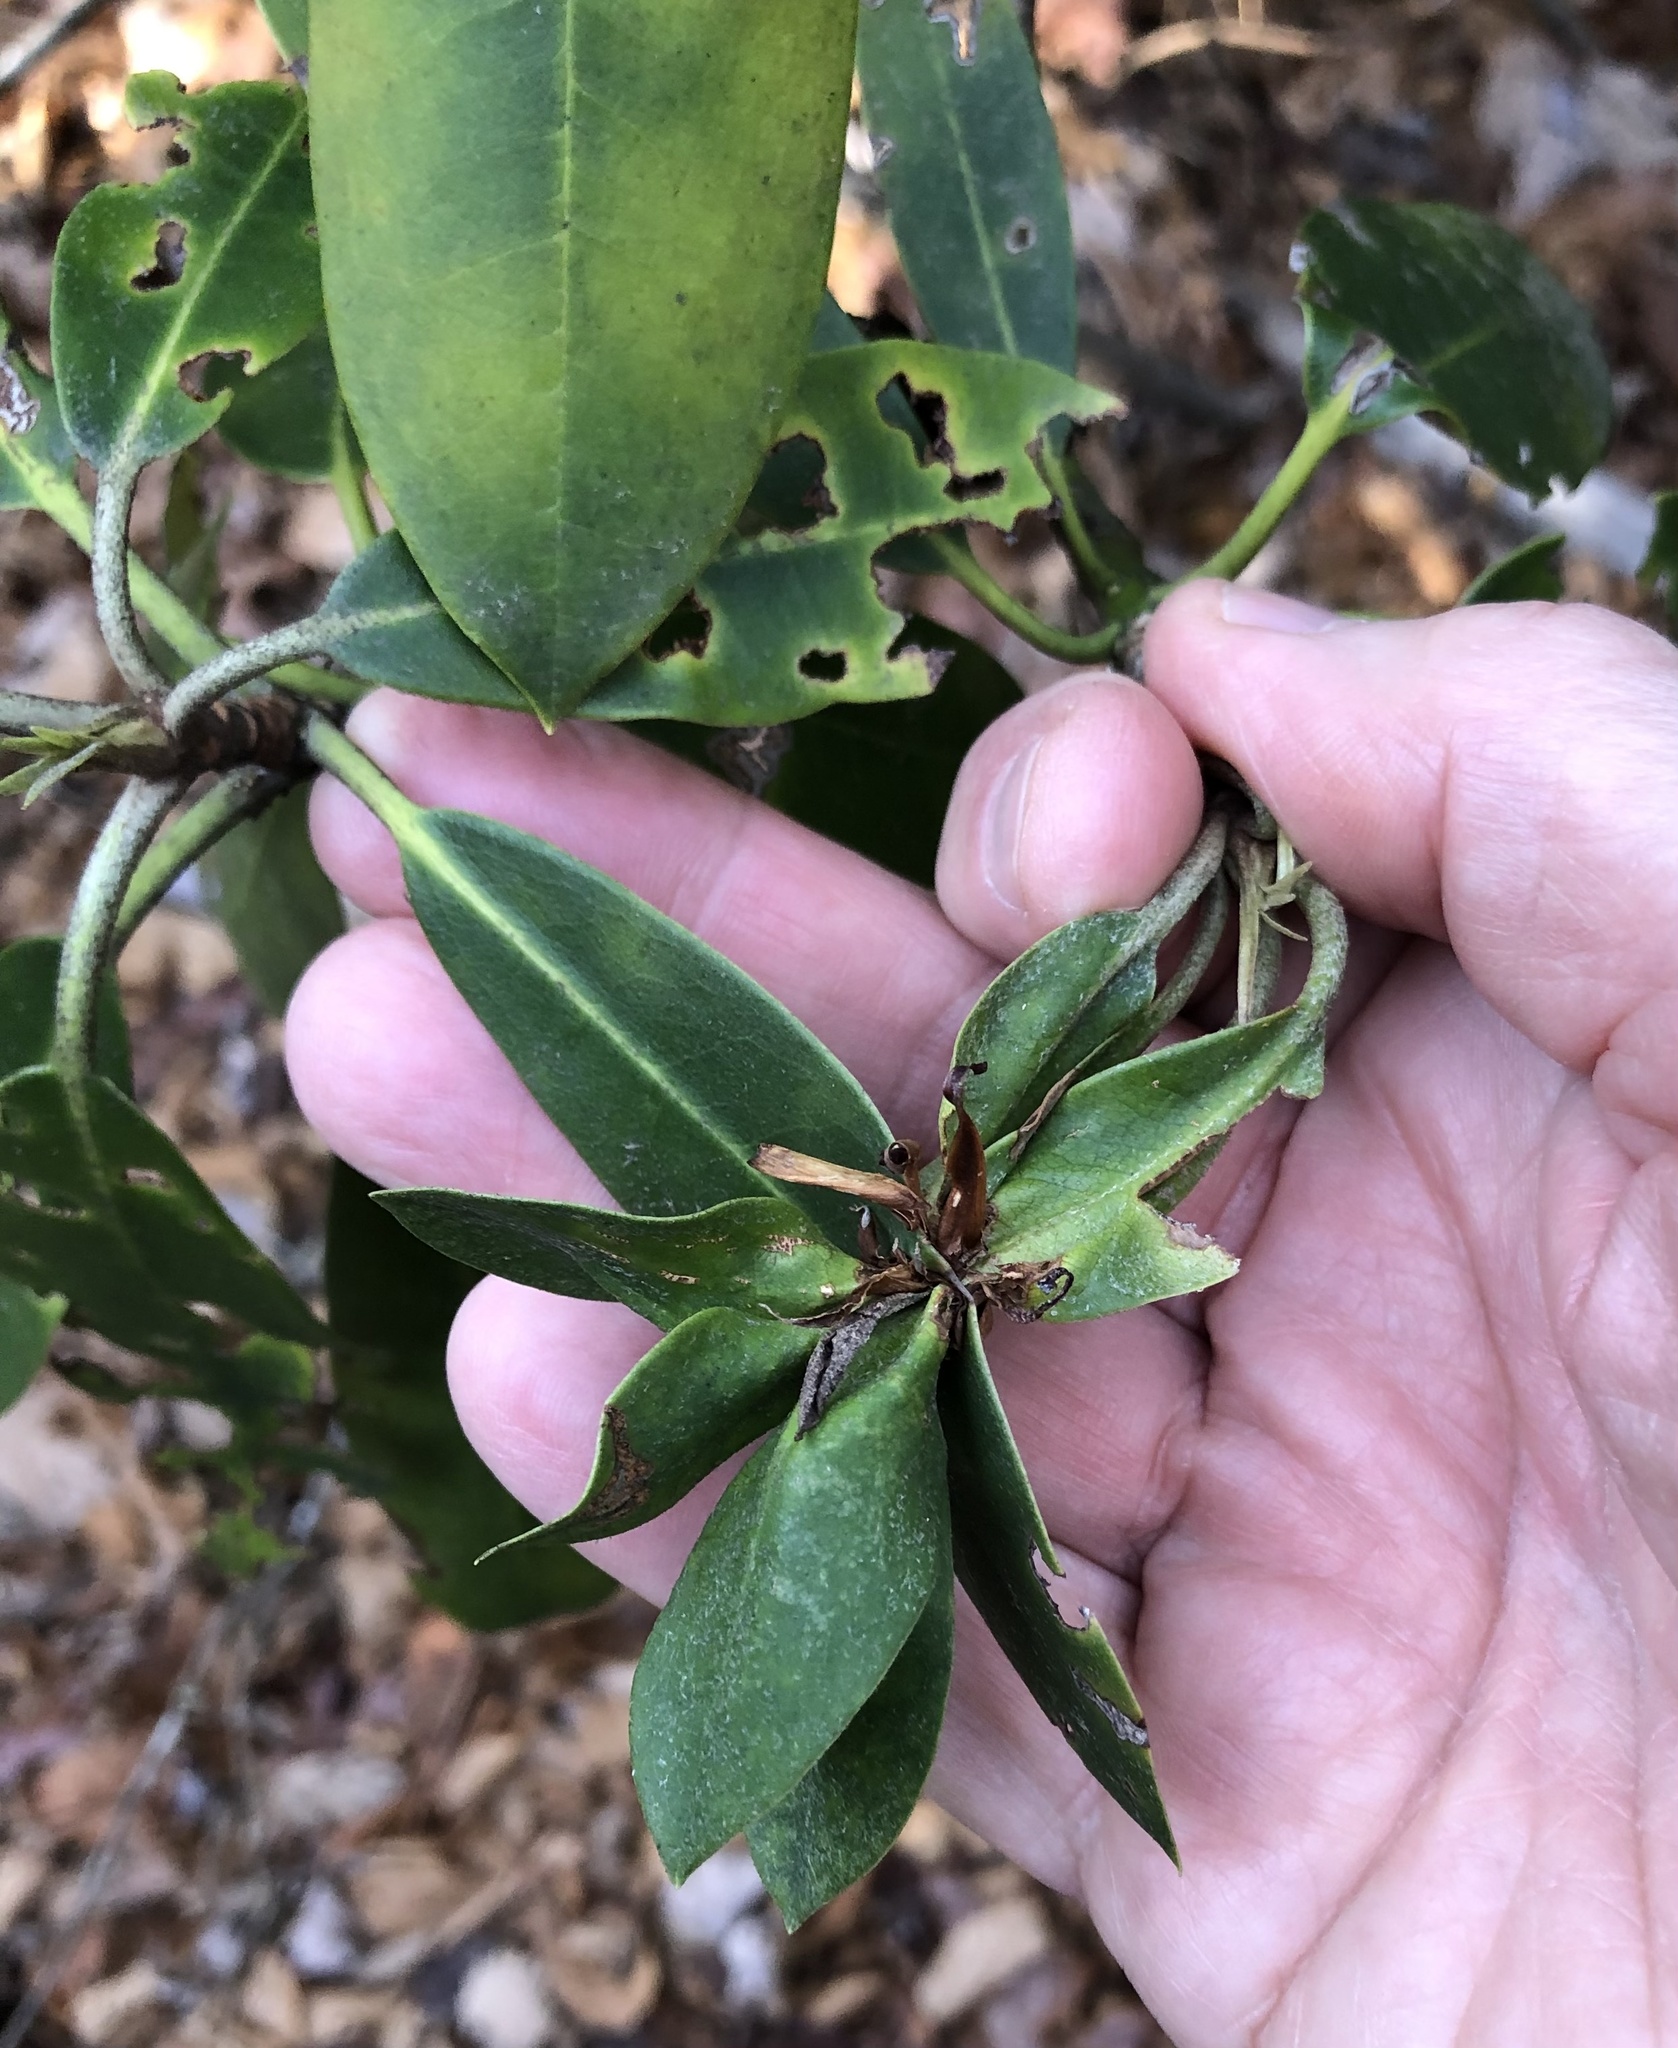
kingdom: Plantae
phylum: Tracheophyta
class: Magnoliopsida
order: Ericales
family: Ericaceae
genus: Rhododendron
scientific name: Rhododendron maximum
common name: Great rhododendron
